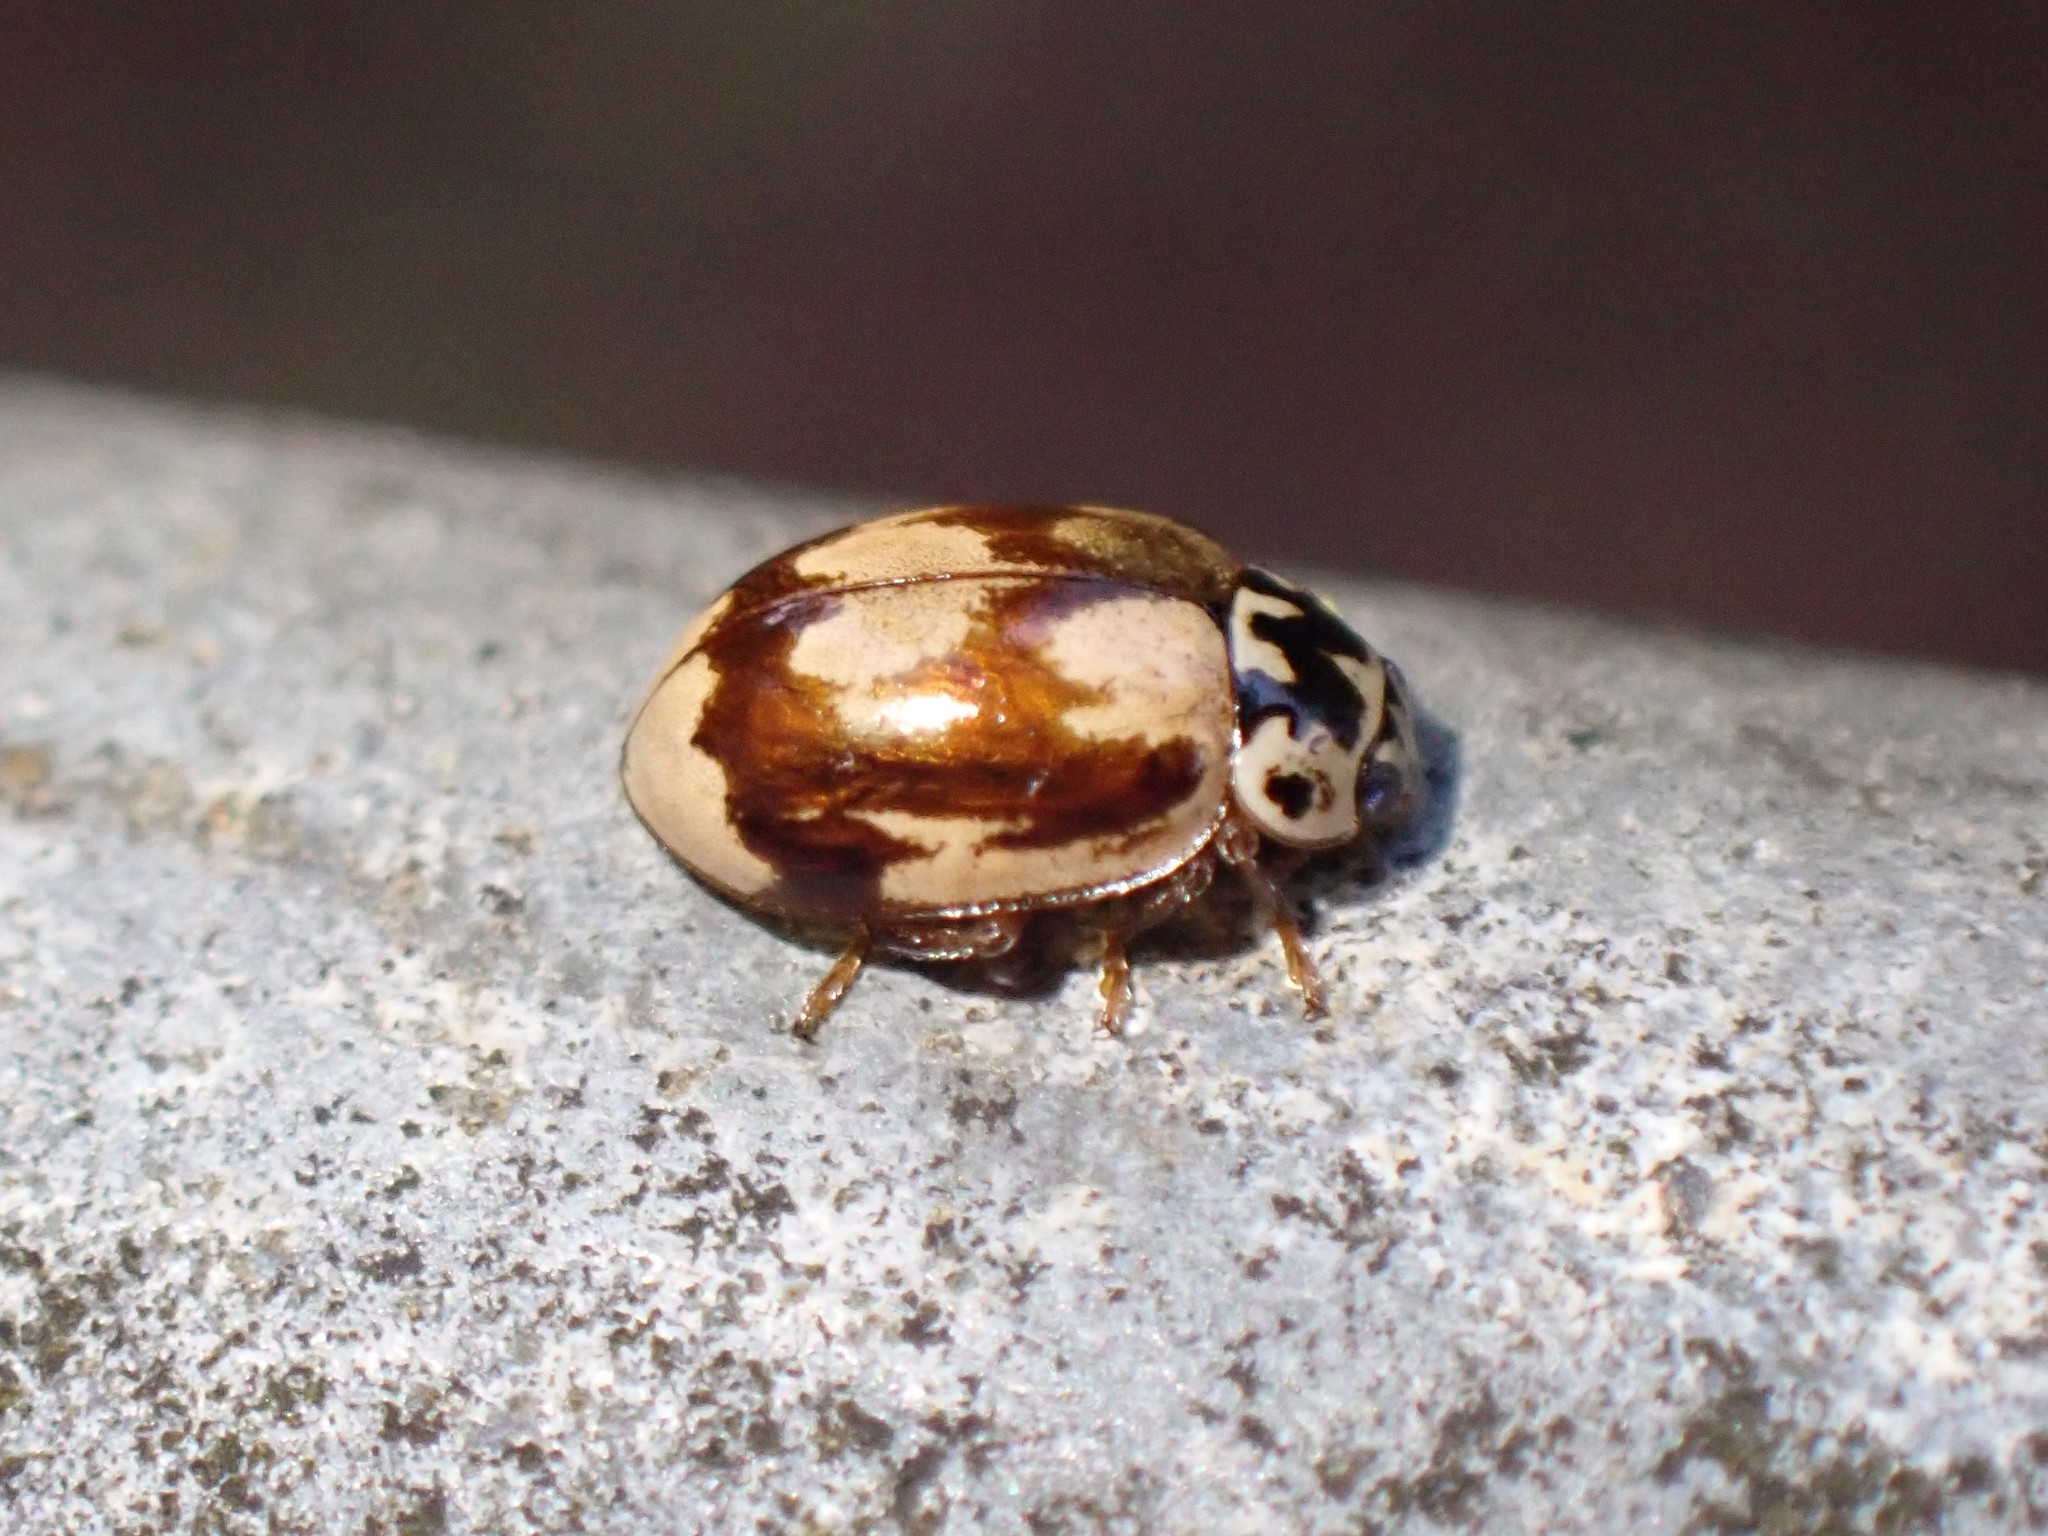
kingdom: Animalia
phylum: Arthropoda
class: Insecta
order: Coleoptera
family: Coccinellidae
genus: Mulsantina
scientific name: Mulsantina picta
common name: Painted ladybird
